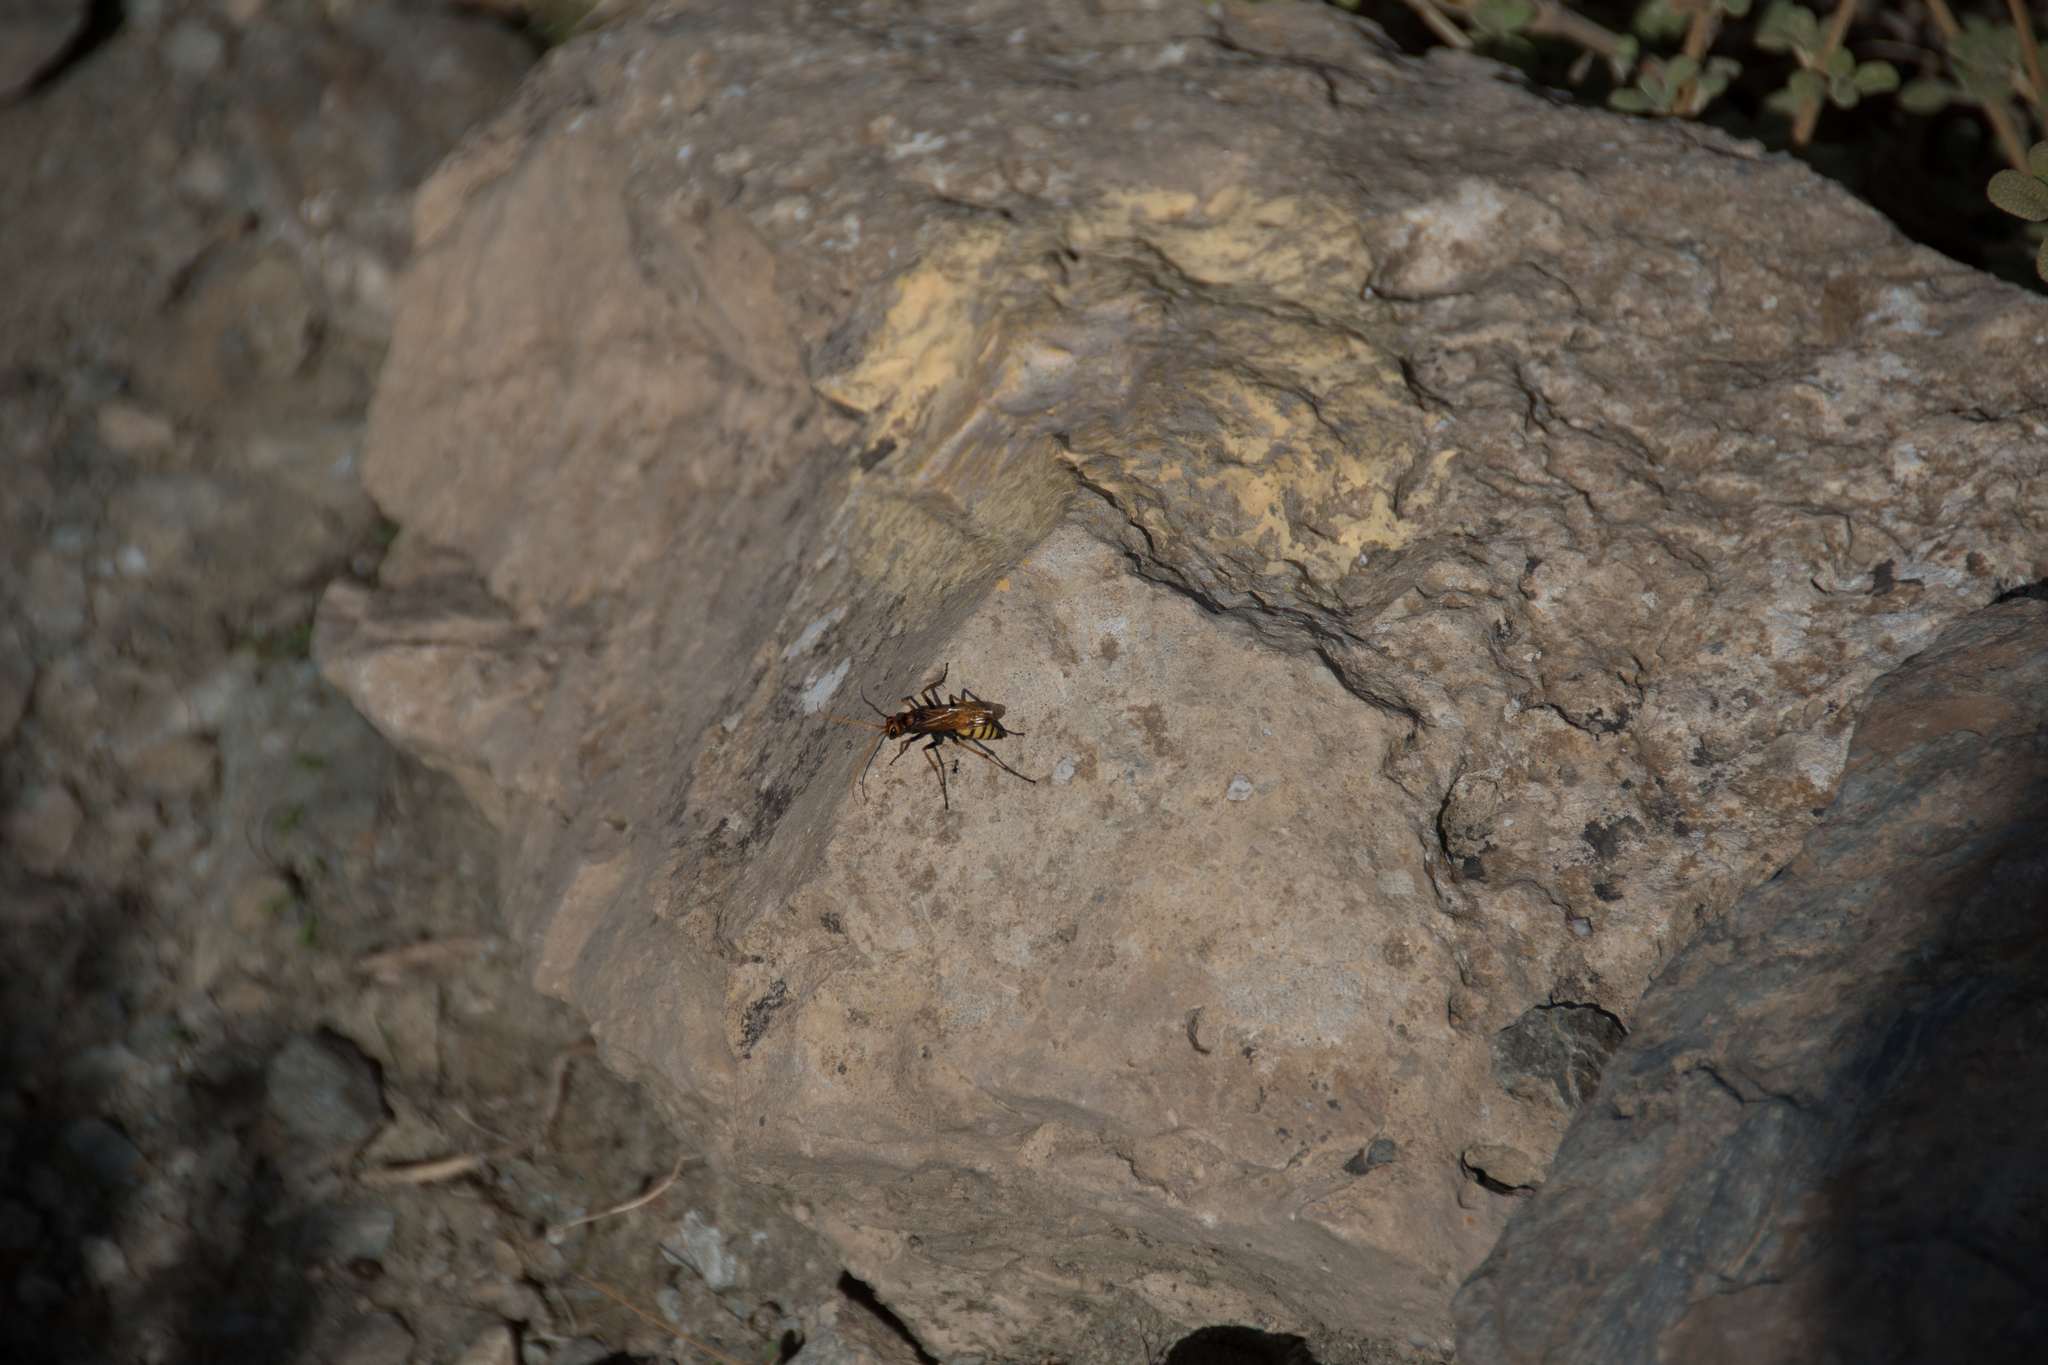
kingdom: Animalia
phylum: Arthropoda
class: Insecta
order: Hymenoptera
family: Pompilidae
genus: Cryptocheilus
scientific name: Cryptocheilus alternatus
